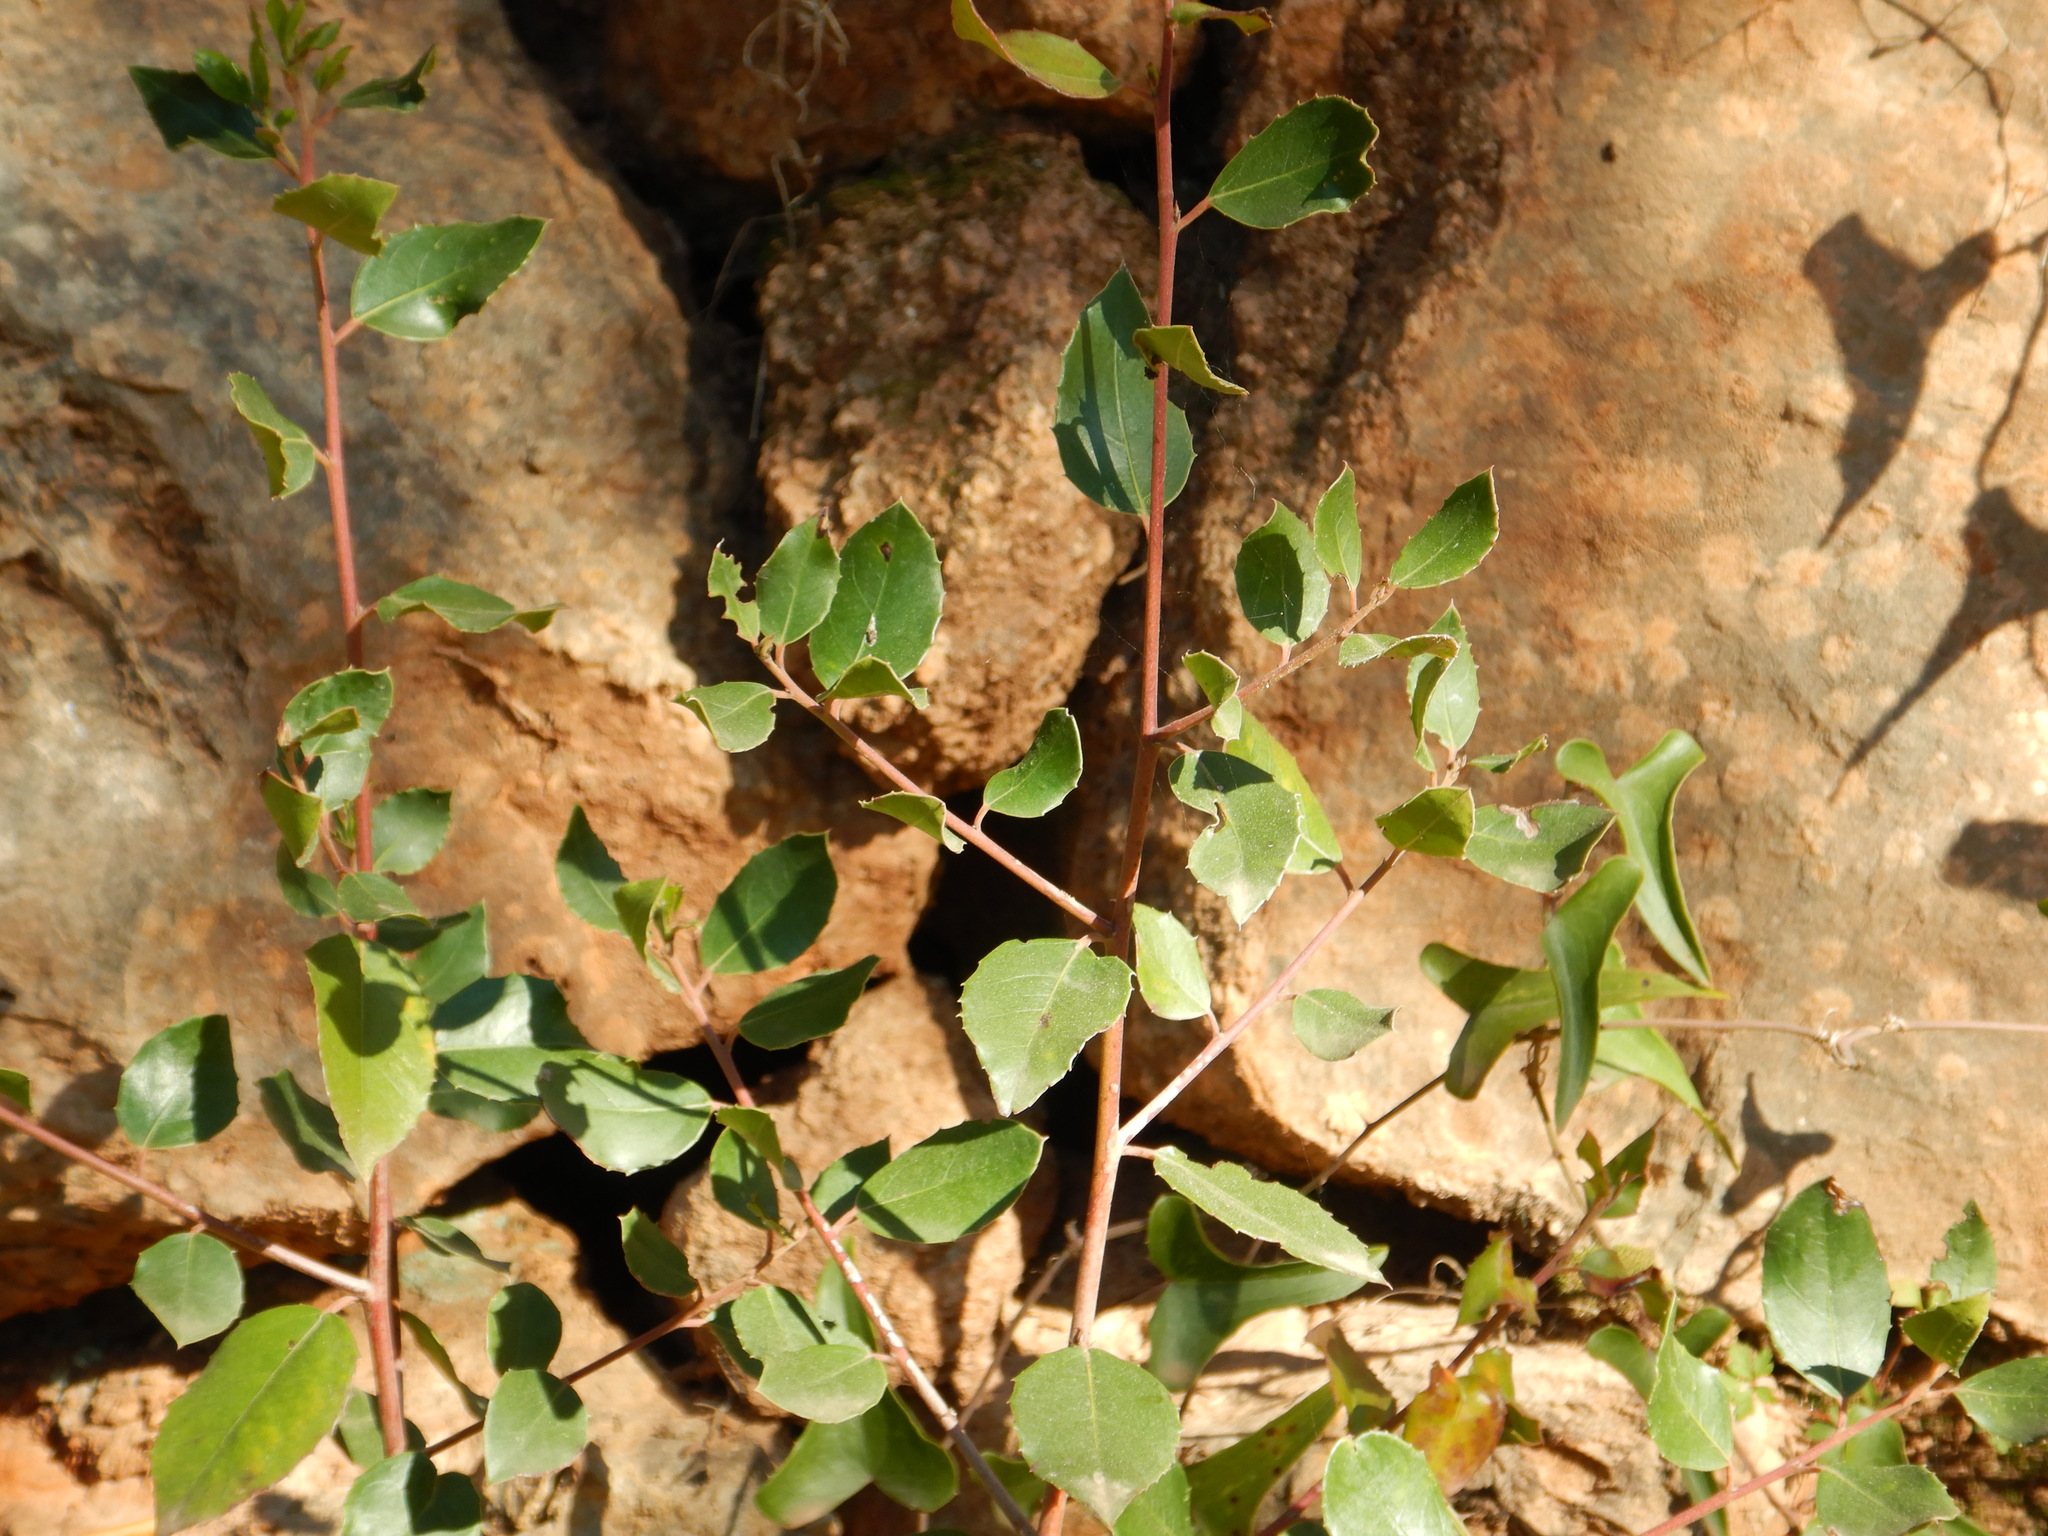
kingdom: Plantae
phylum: Tracheophyta
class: Magnoliopsida
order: Rosales
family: Rhamnaceae
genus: Rhamnus
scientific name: Rhamnus alaternus
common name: Mediterranean buckthorn
